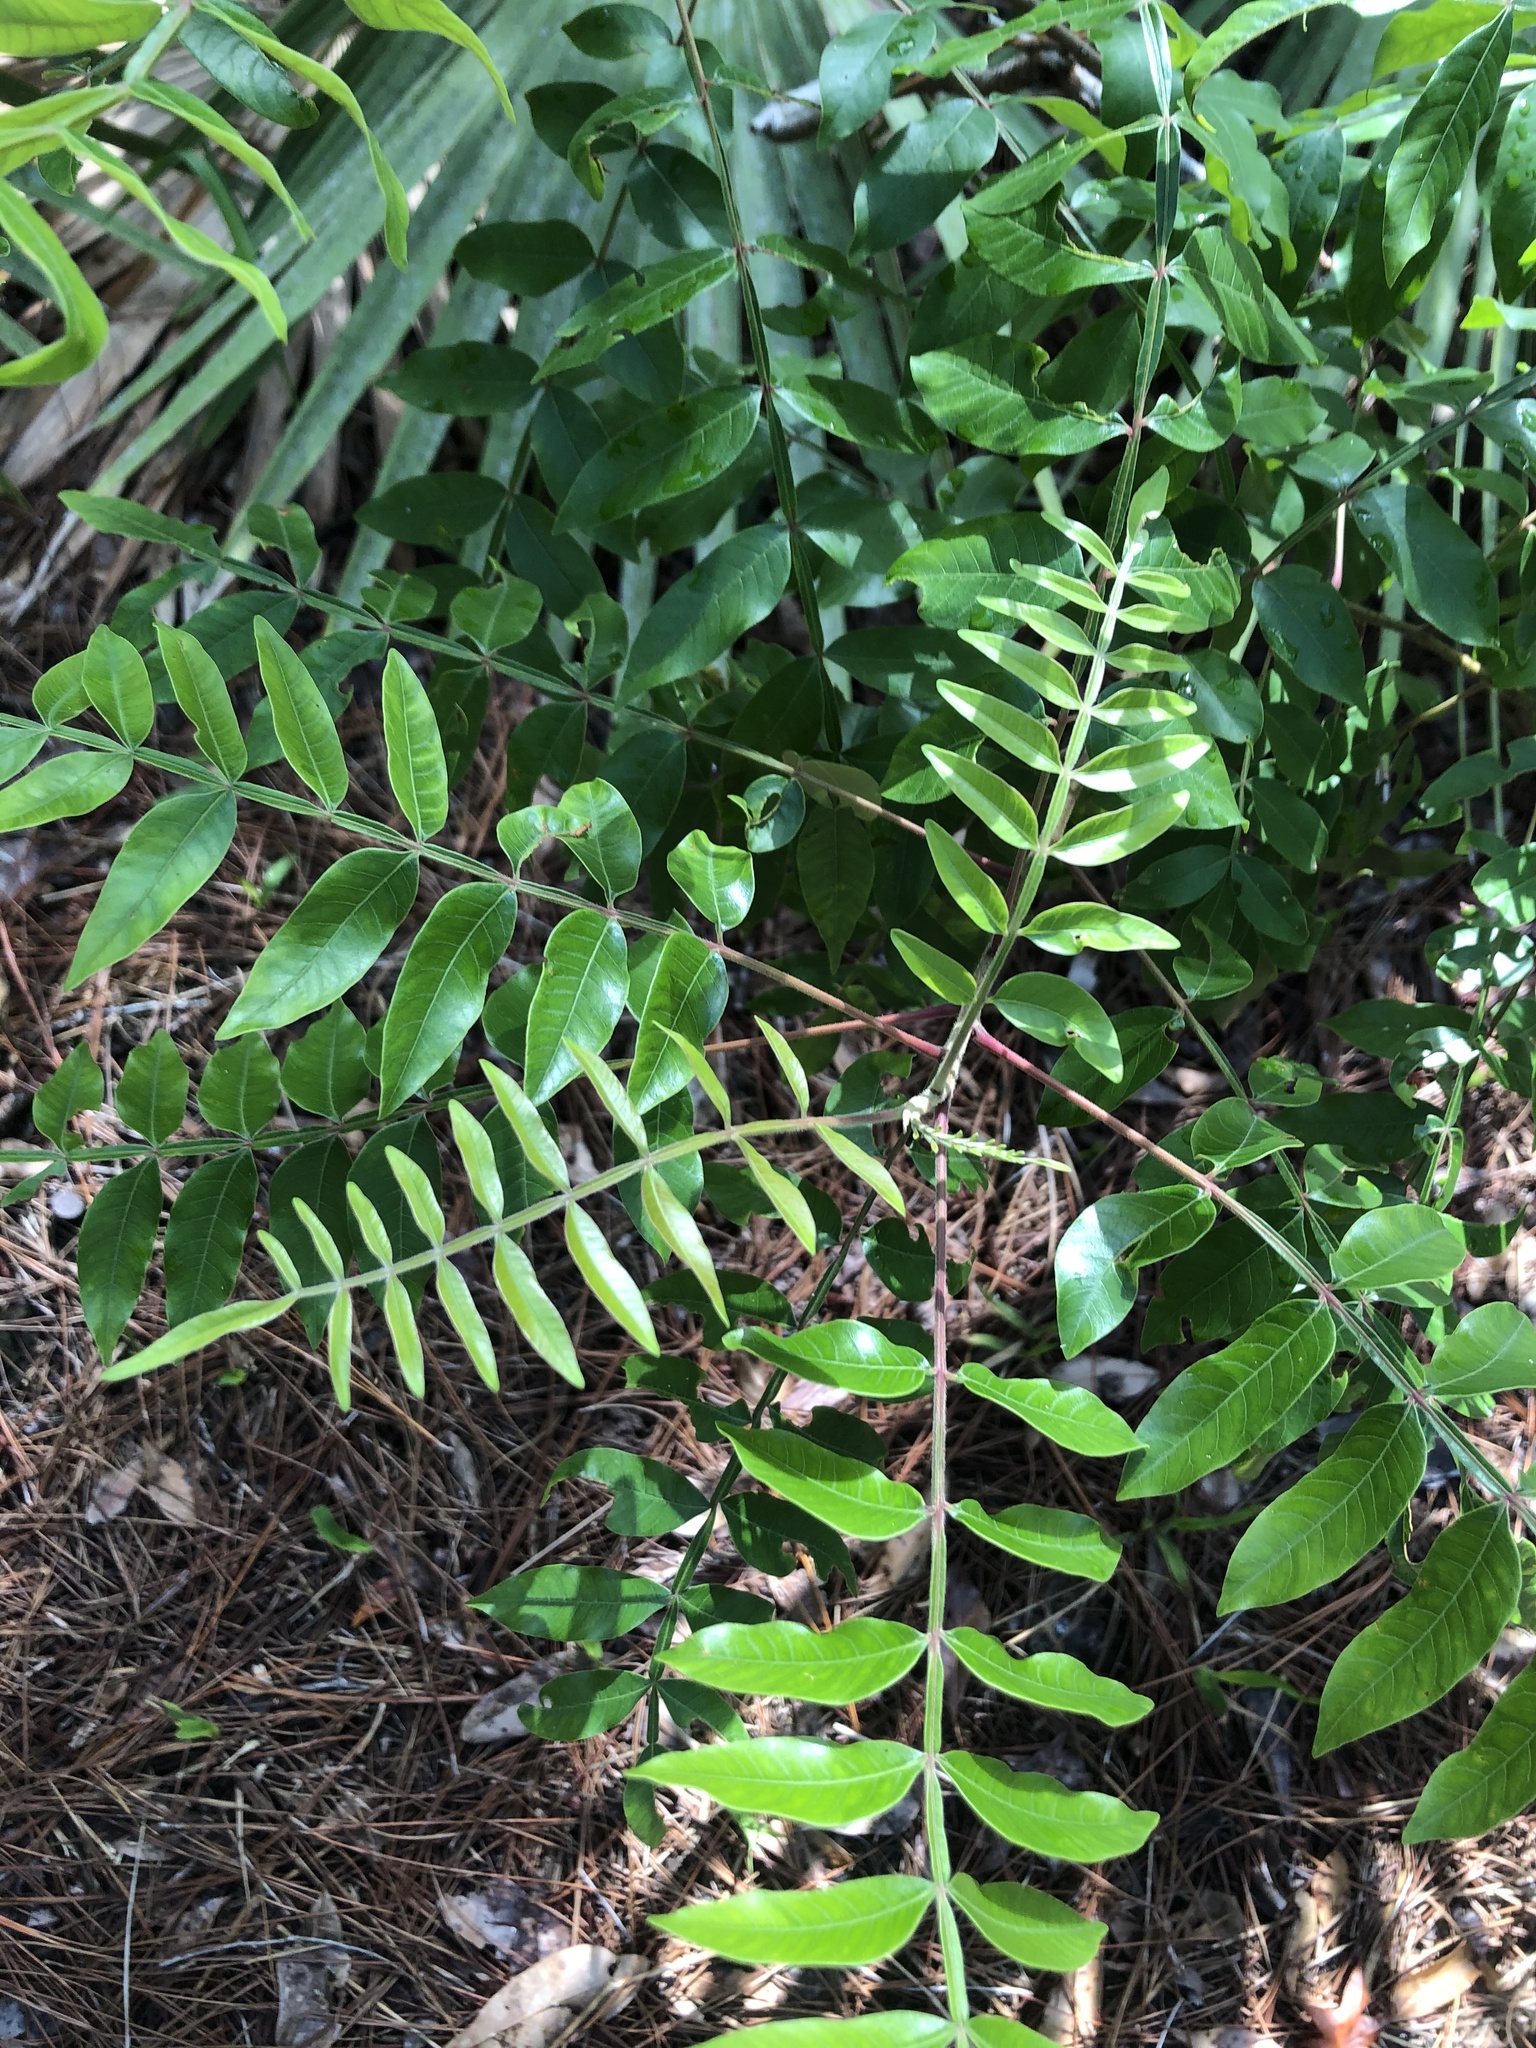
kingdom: Plantae
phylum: Tracheophyta
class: Magnoliopsida
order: Sapindales
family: Anacardiaceae
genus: Rhus
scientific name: Rhus copallina
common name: Shining sumac
